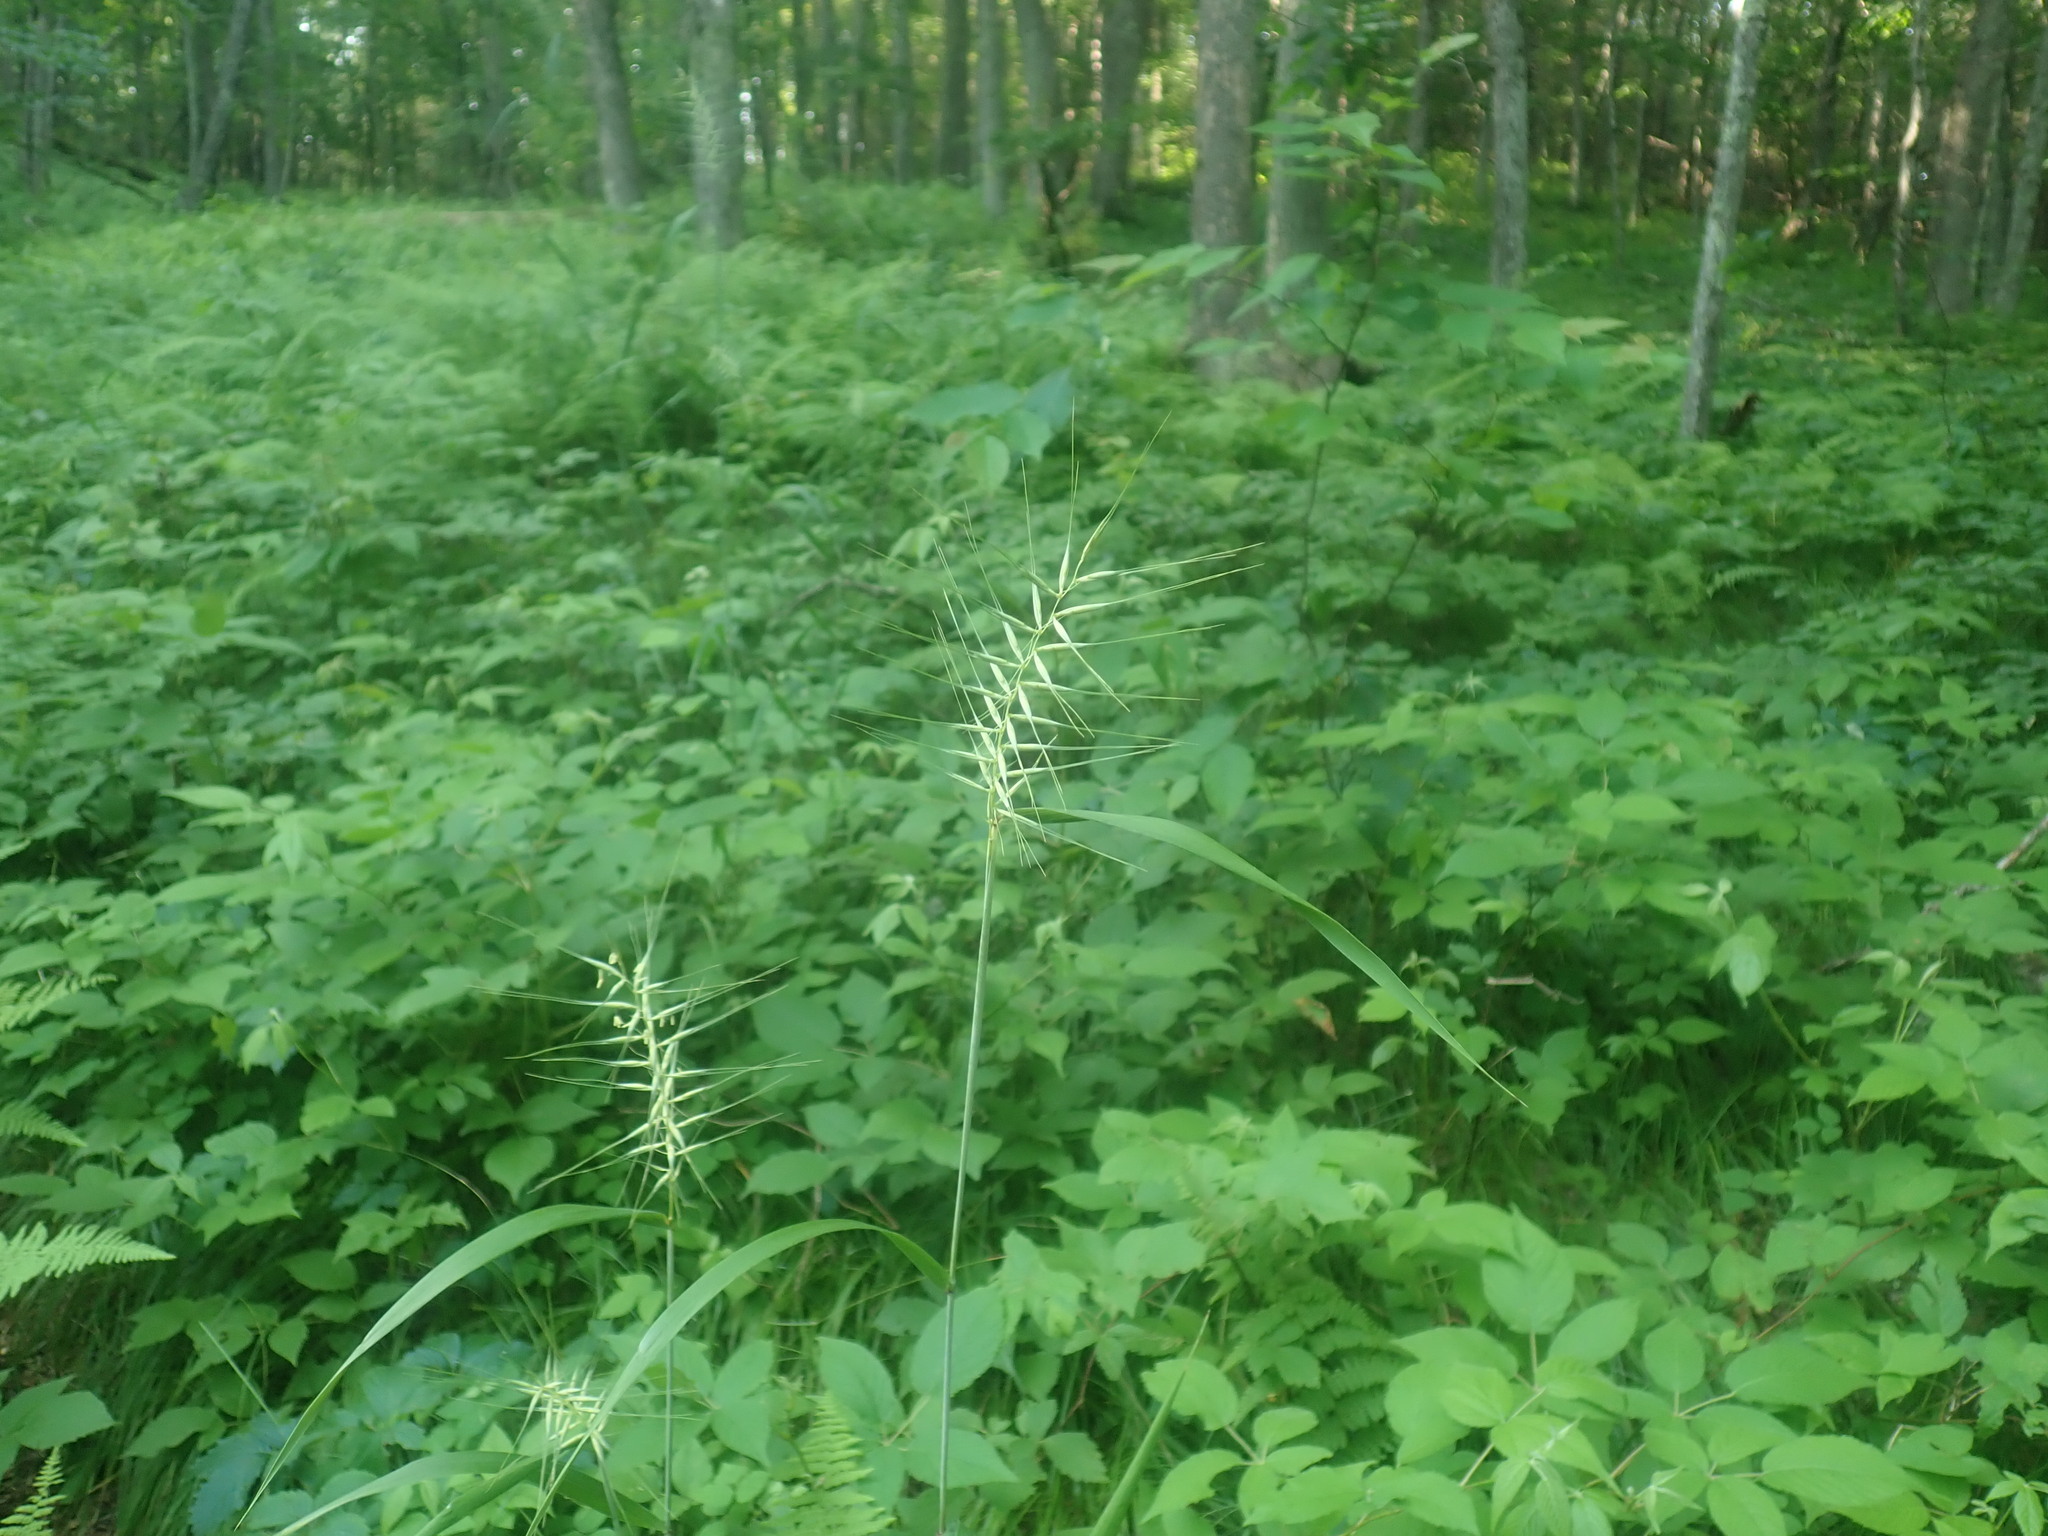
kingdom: Plantae
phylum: Tracheophyta
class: Liliopsida
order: Poales
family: Poaceae
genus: Elymus
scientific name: Elymus hystrix
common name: Bottlebrush grass
